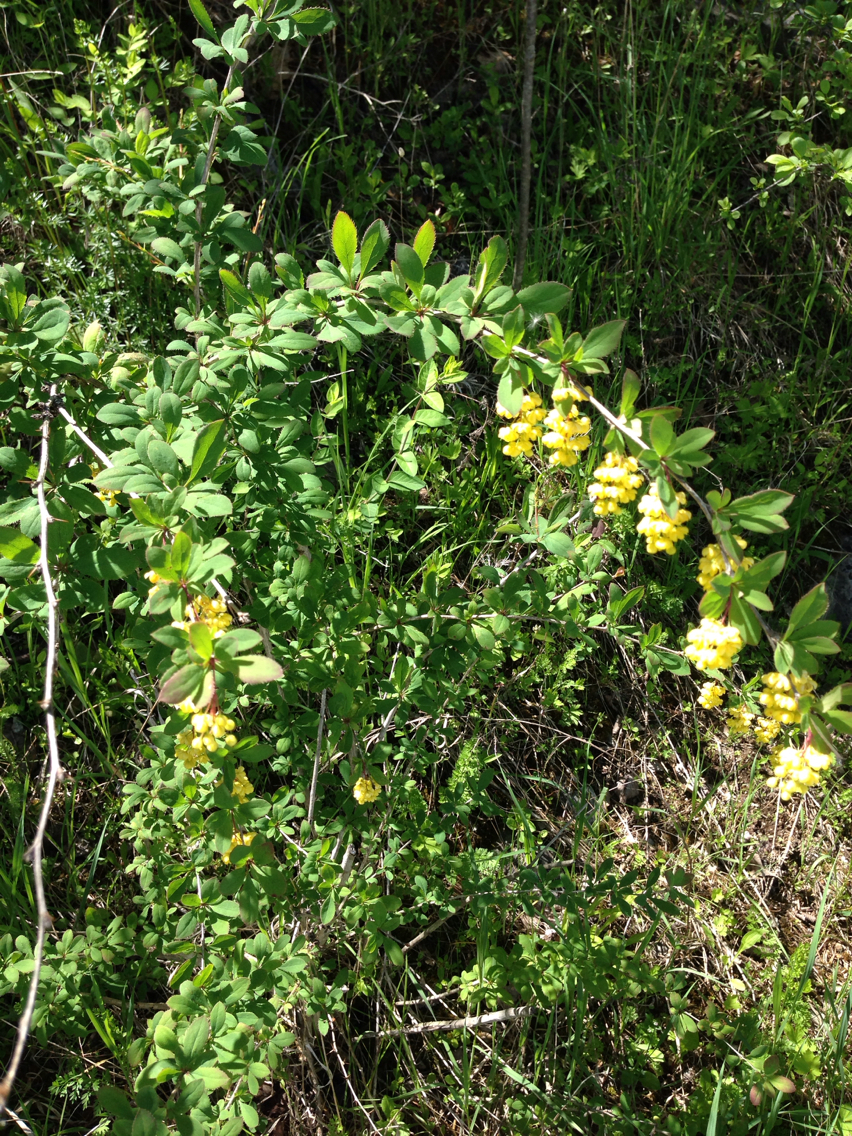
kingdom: Plantae
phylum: Tracheophyta
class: Magnoliopsida
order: Ranunculales
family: Berberidaceae
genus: Berberis
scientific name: Berberis vulgaris
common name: Barberry
